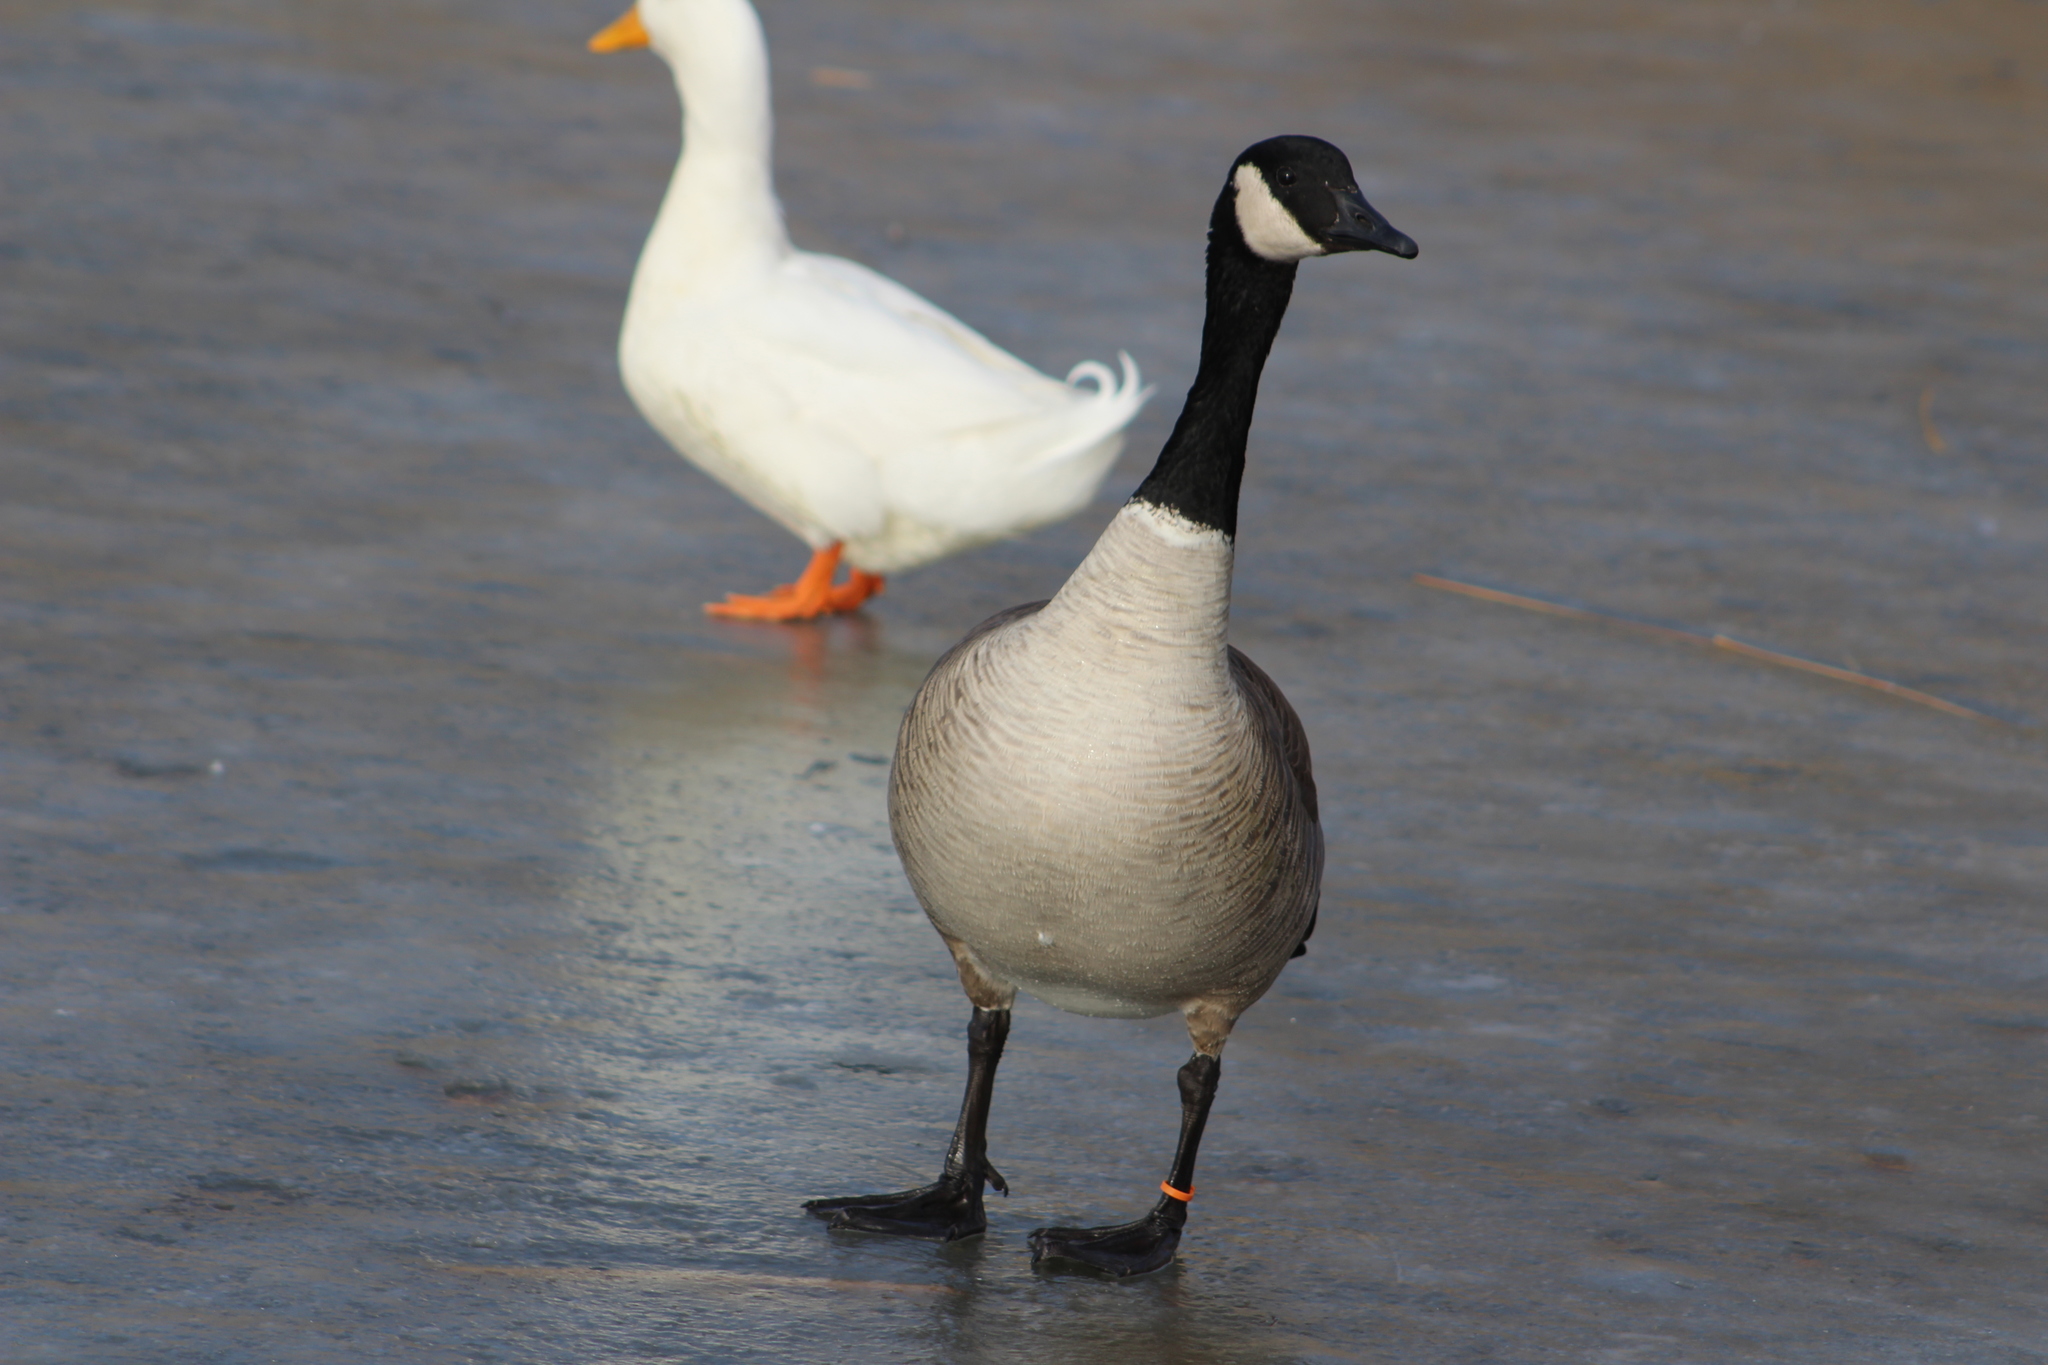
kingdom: Animalia
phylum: Chordata
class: Aves
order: Anseriformes
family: Anatidae
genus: Branta
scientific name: Branta canadensis
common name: Canada goose
